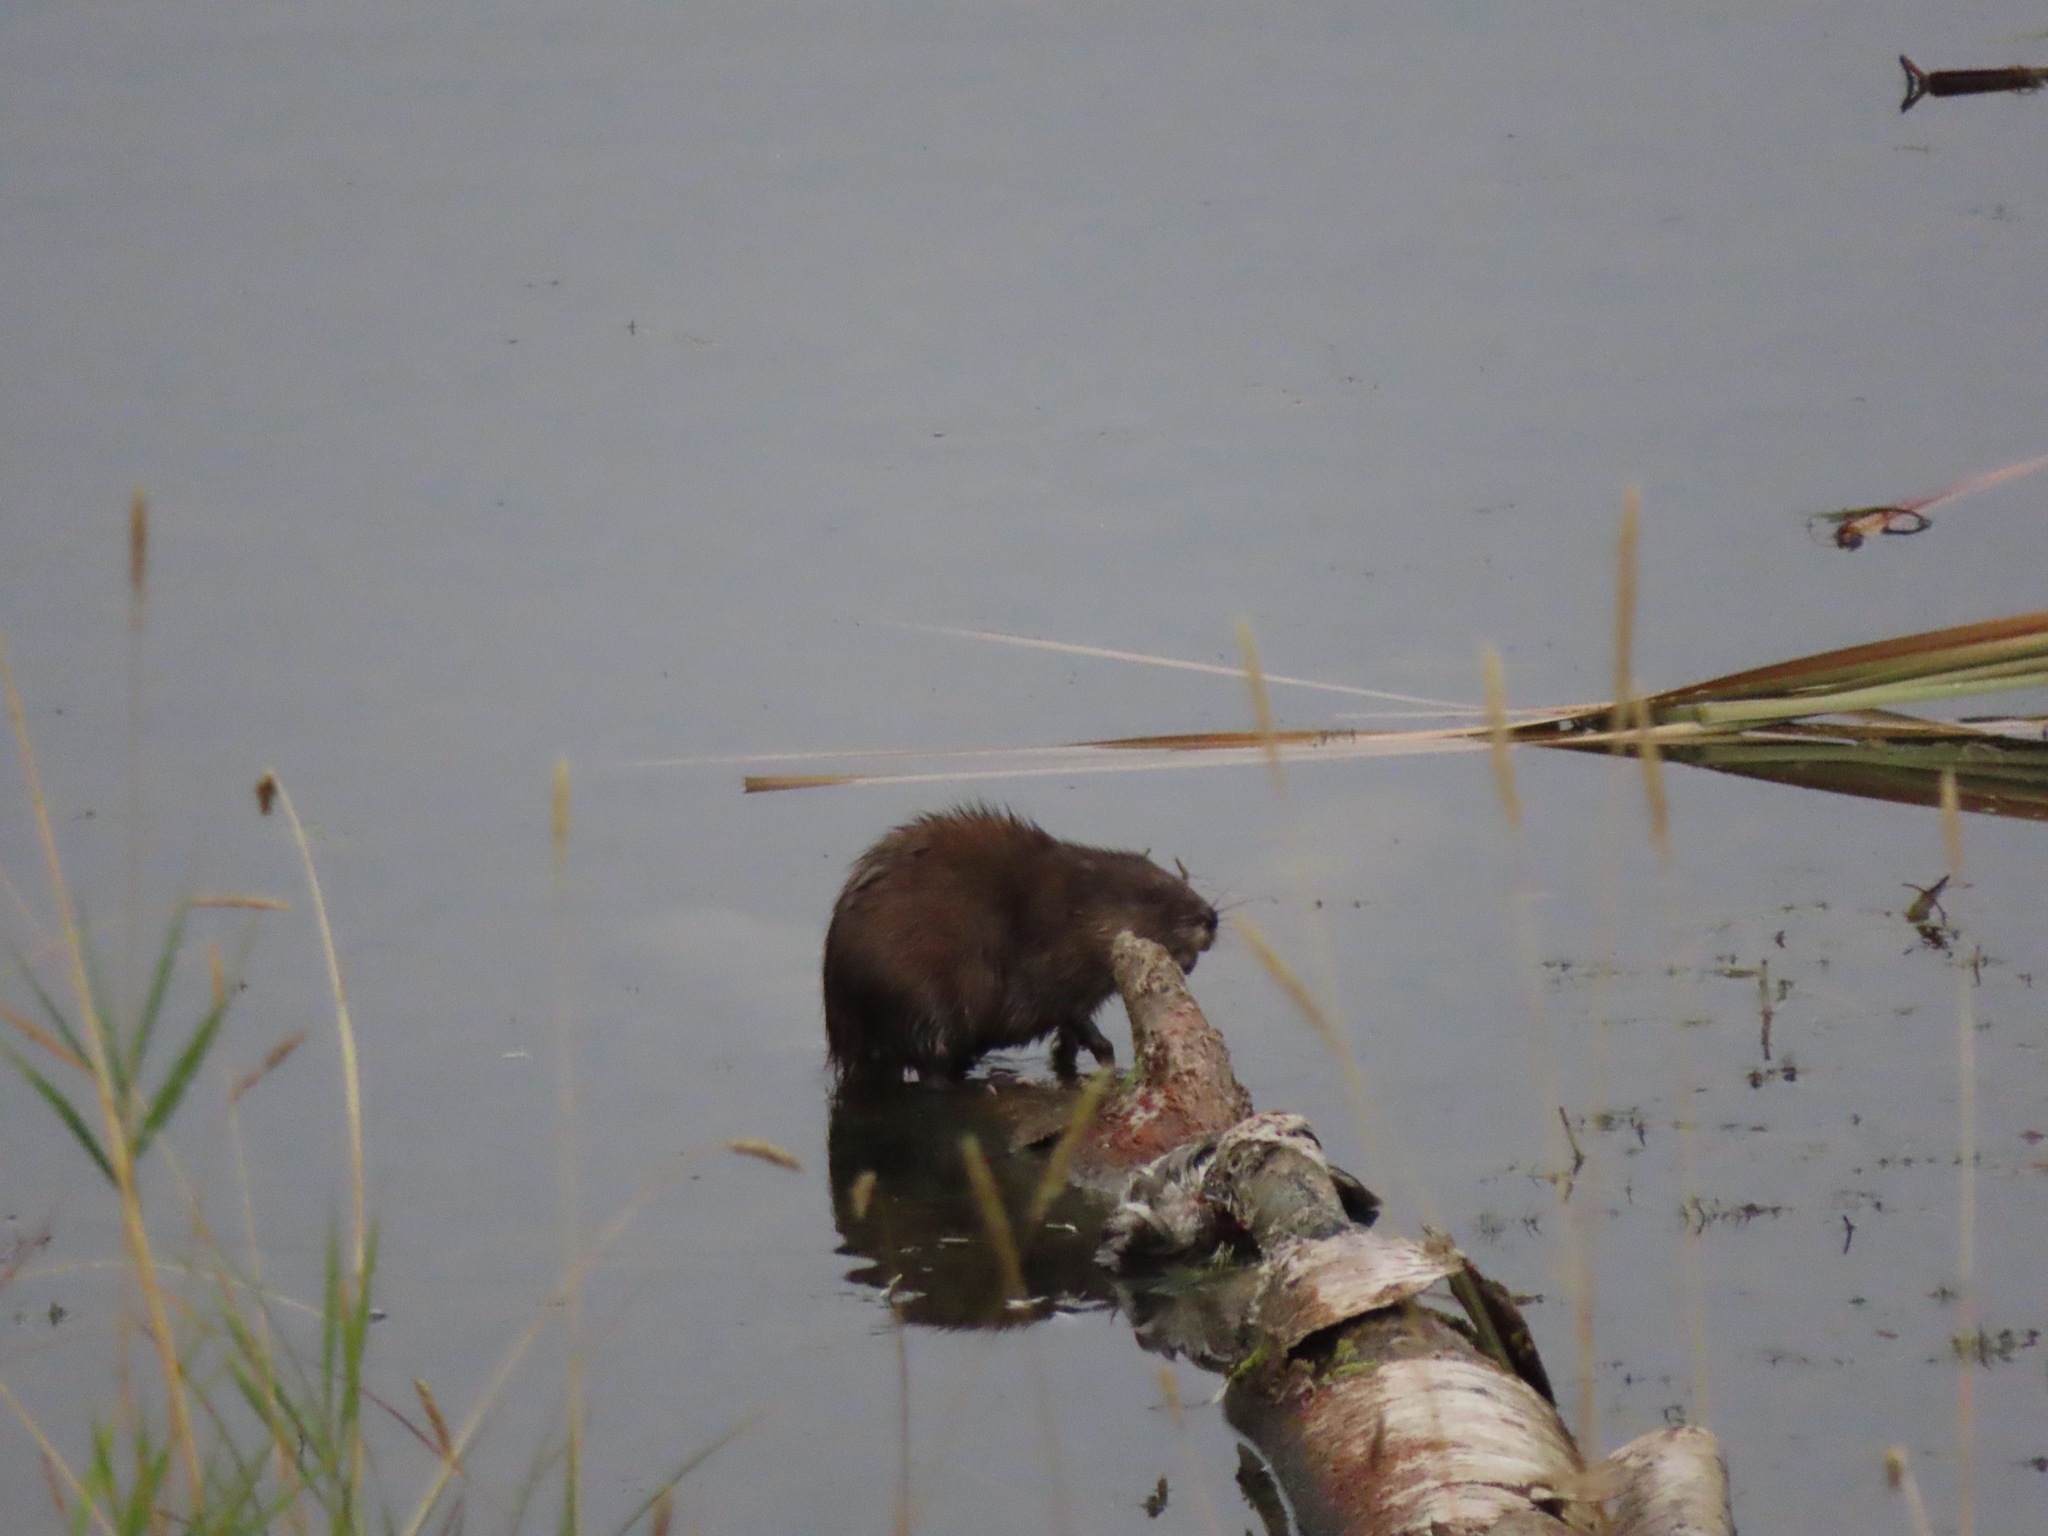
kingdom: Animalia
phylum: Chordata
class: Mammalia
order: Rodentia
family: Cricetidae
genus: Ondatra
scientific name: Ondatra zibethicus
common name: Muskrat
